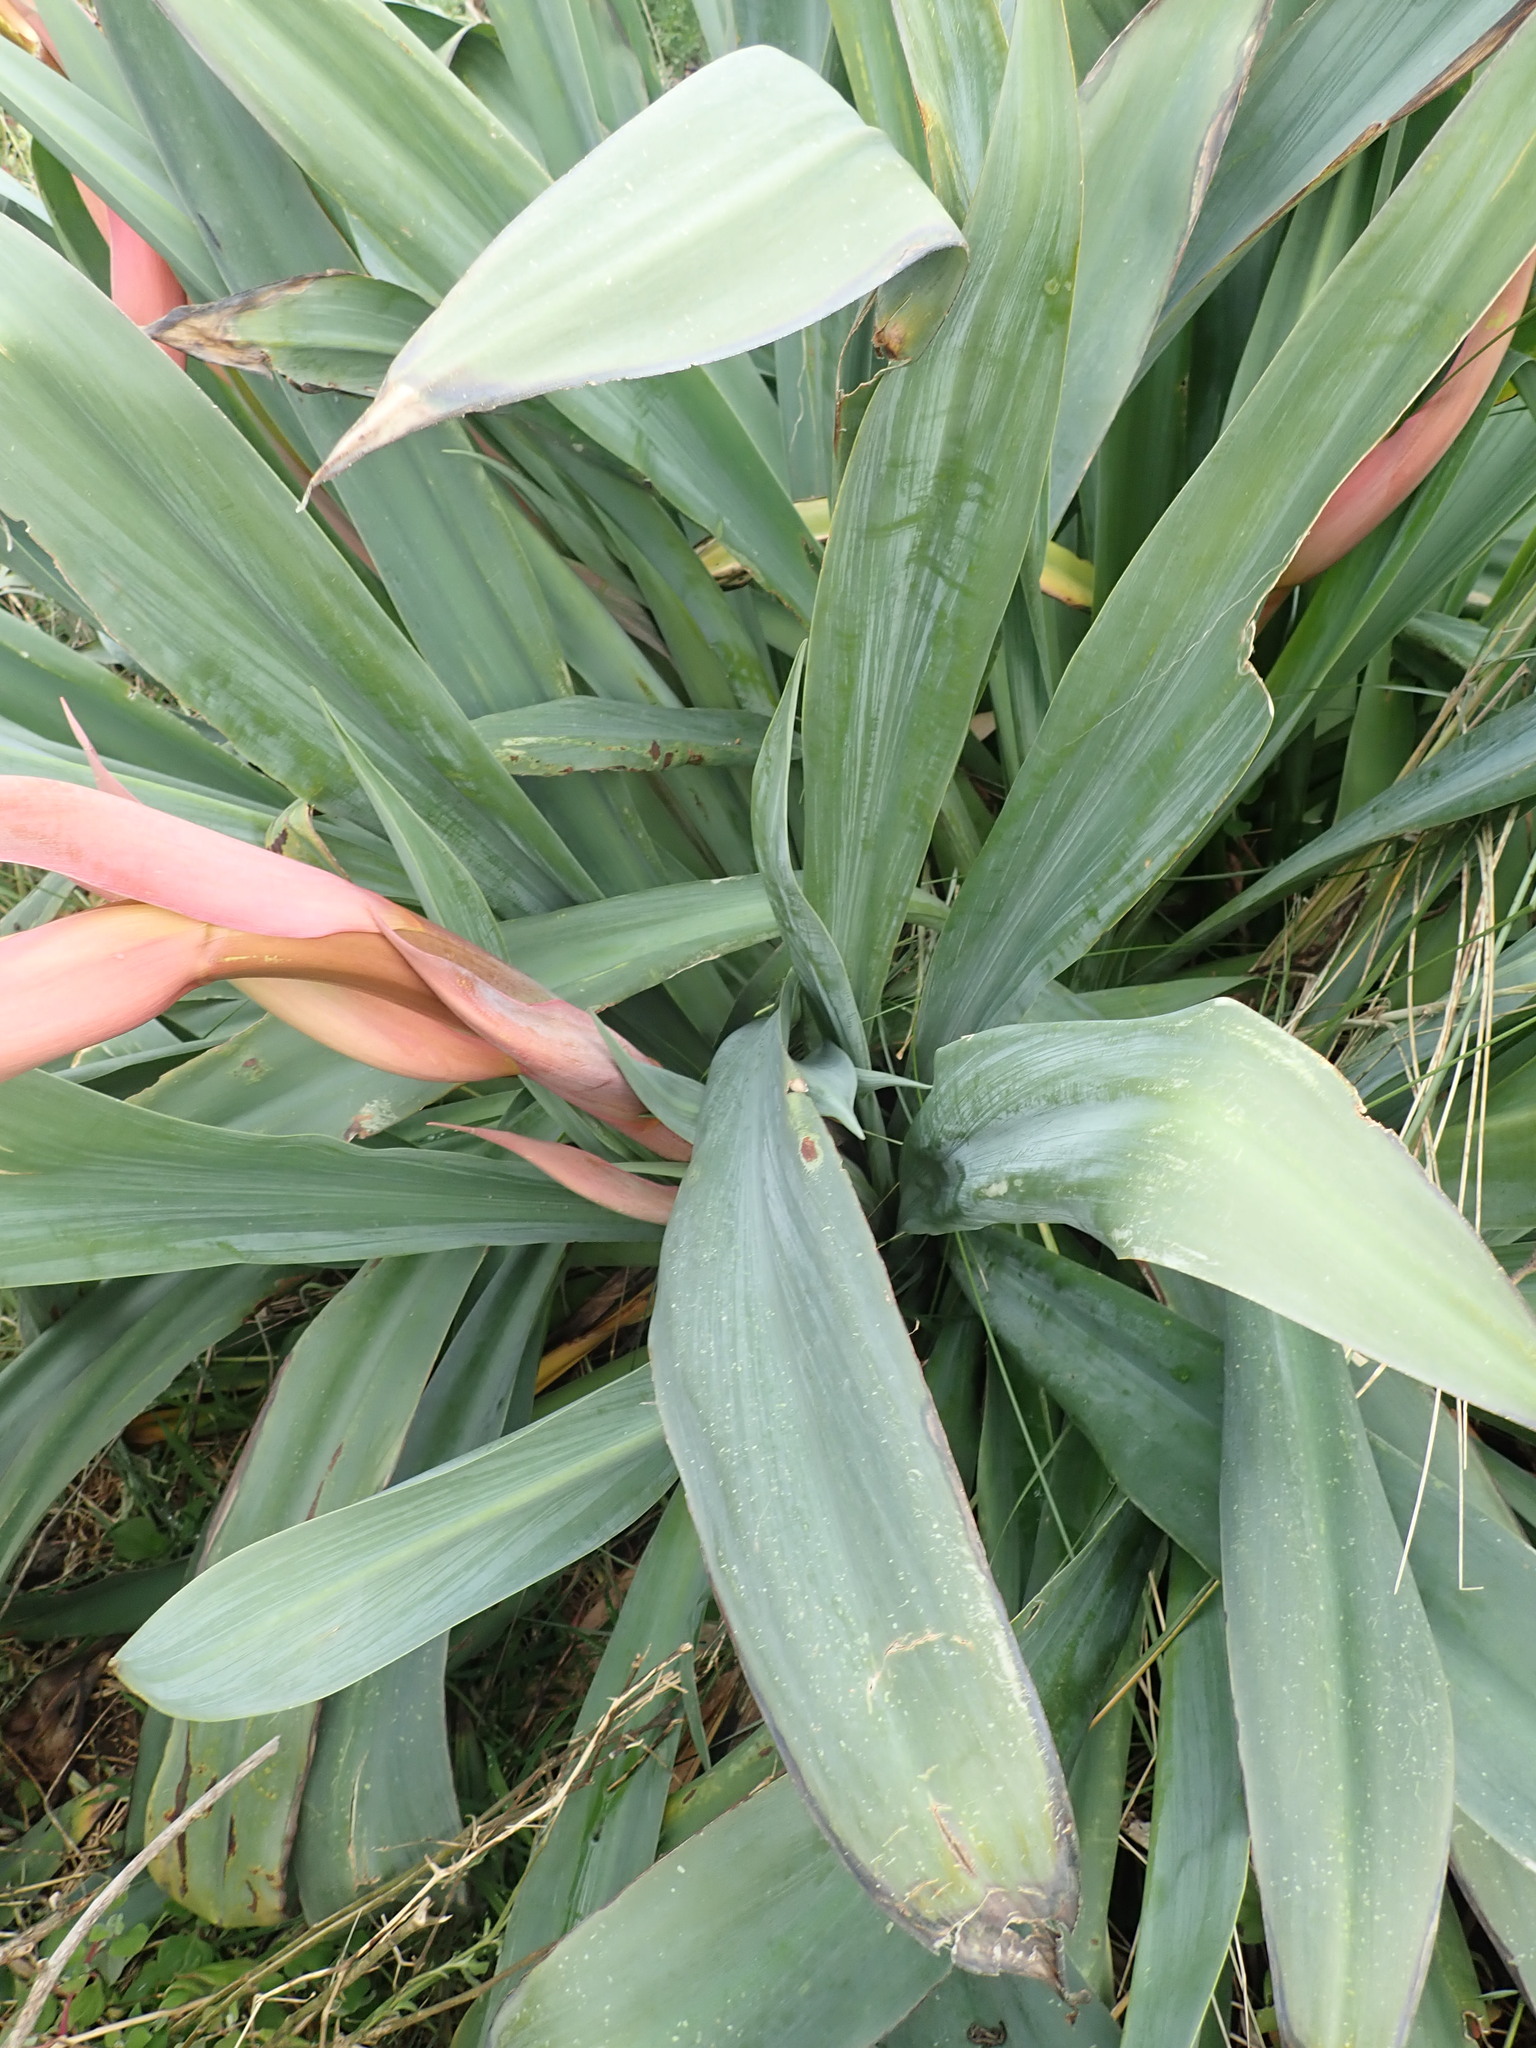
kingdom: Plantae
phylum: Tracheophyta
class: Liliopsida
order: Asparagales
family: Asparagaceae
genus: Beschorneria
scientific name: Beschorneria yuccoides
